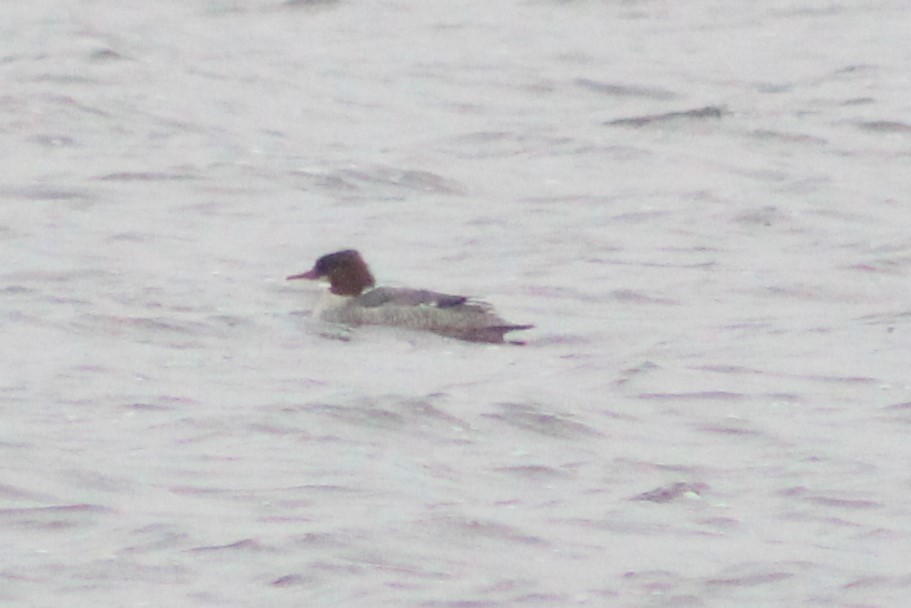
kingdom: Animalia
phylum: Chordata
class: Aves
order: Anseriformes
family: Anatidae
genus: Mergus
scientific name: Mergus merganser
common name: Common merganser
